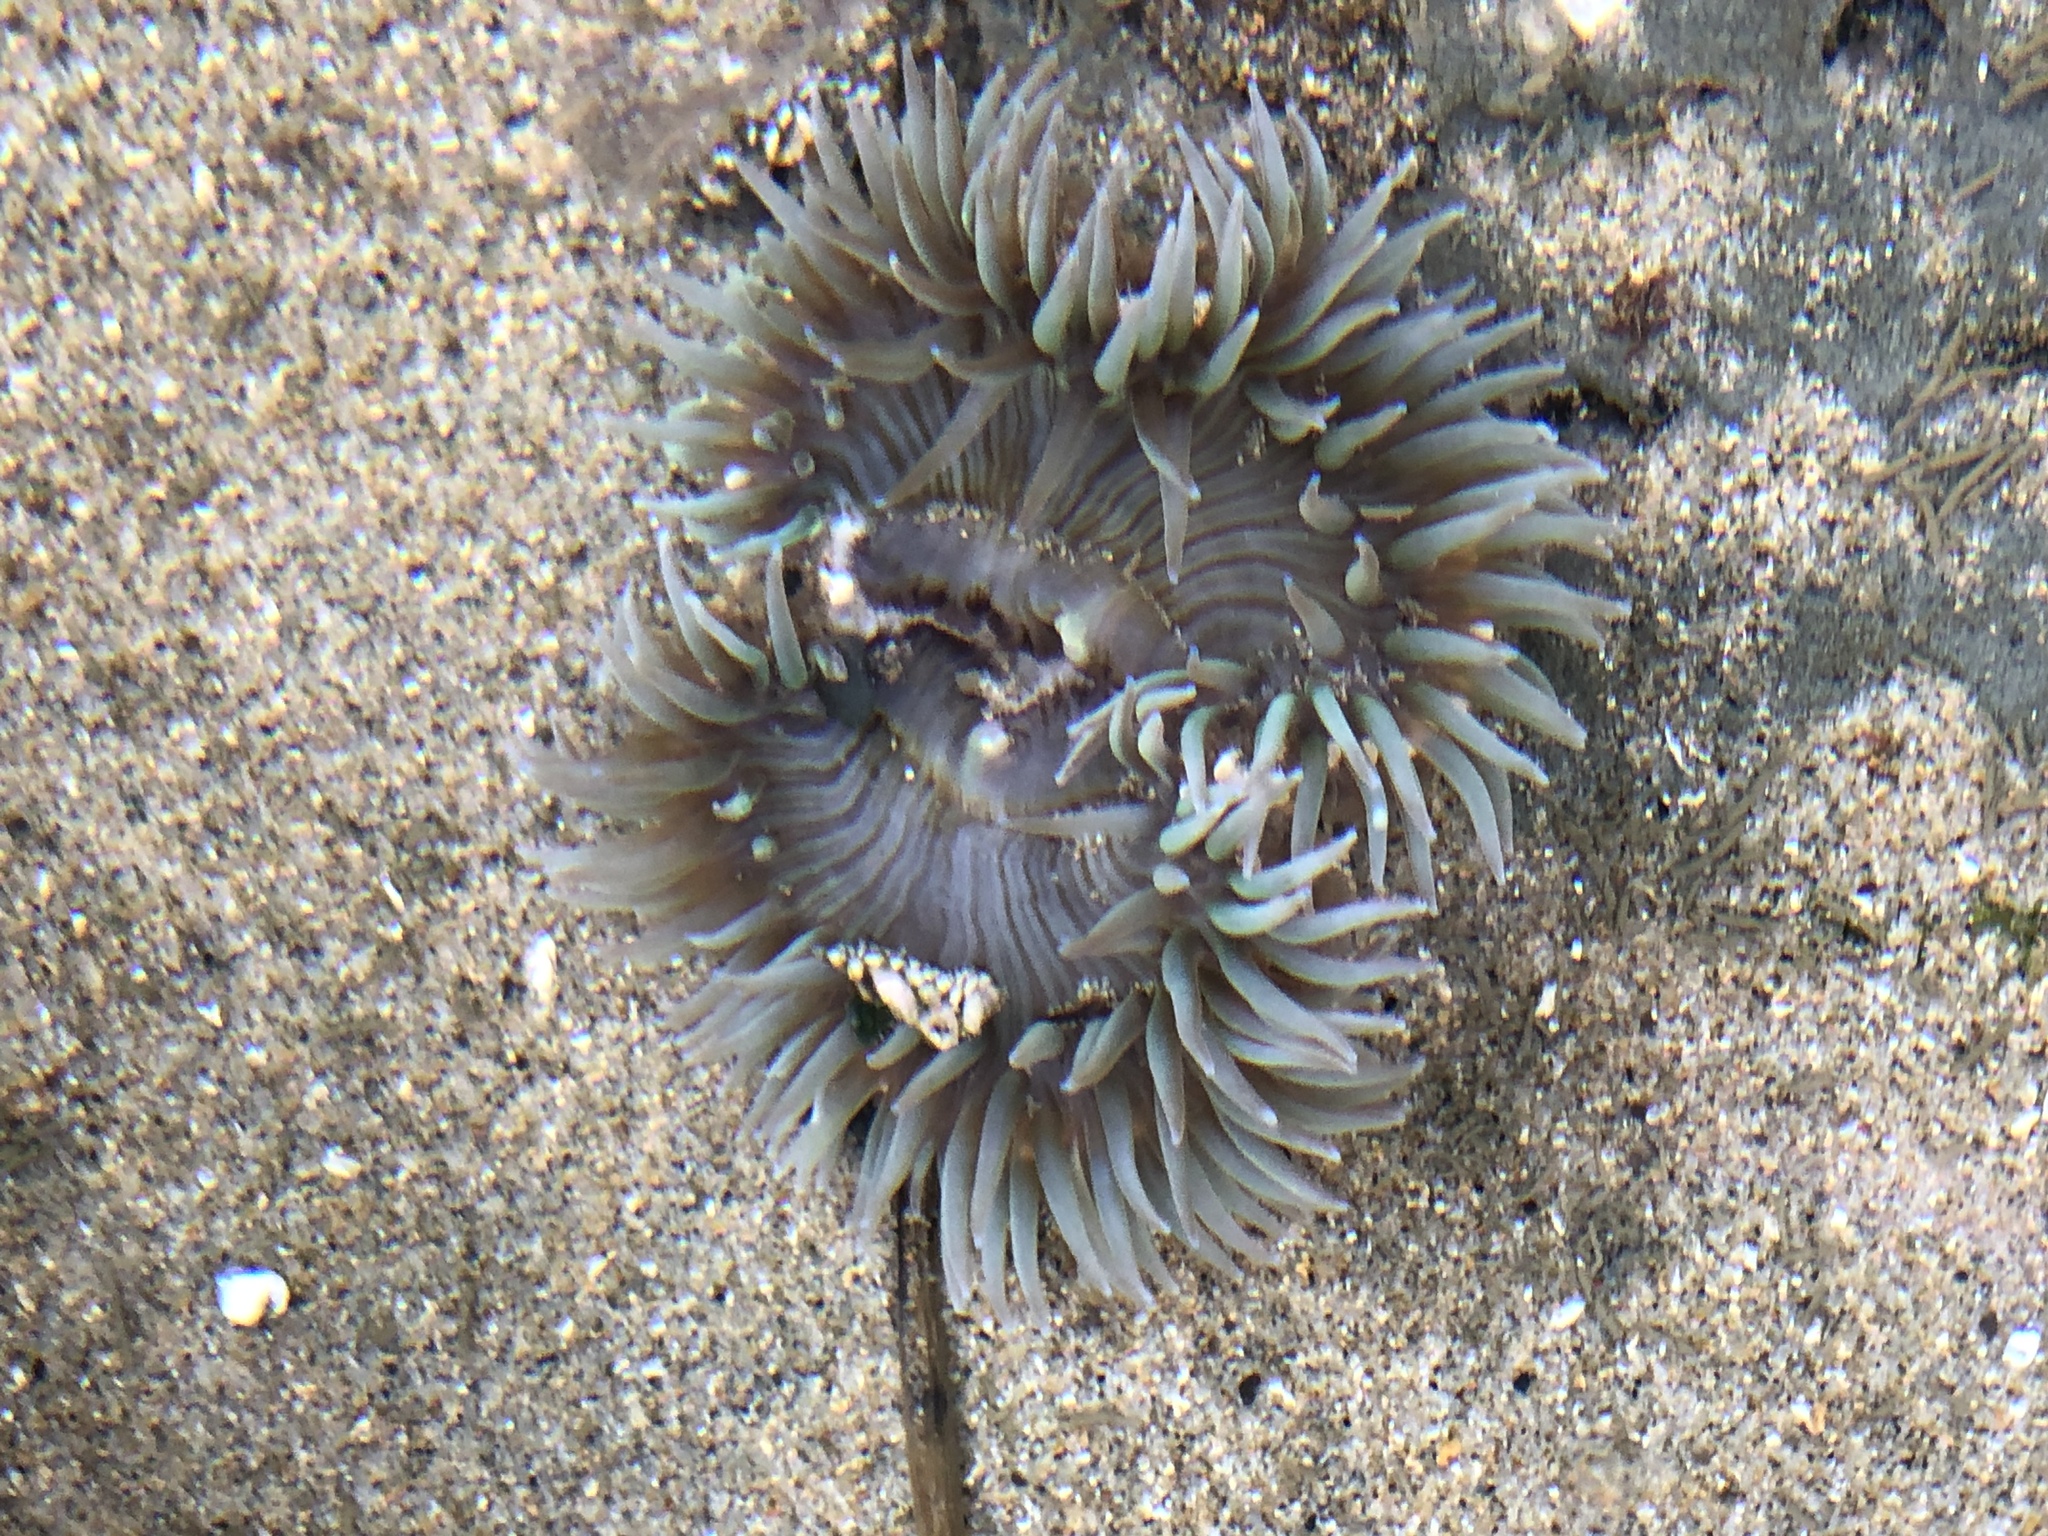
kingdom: Animalia
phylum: Cnidaria
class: Anthozoa
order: Actiniaria
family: Actiniidae
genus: Anthopleura
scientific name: Anthopleura sola
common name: Sun anemone
